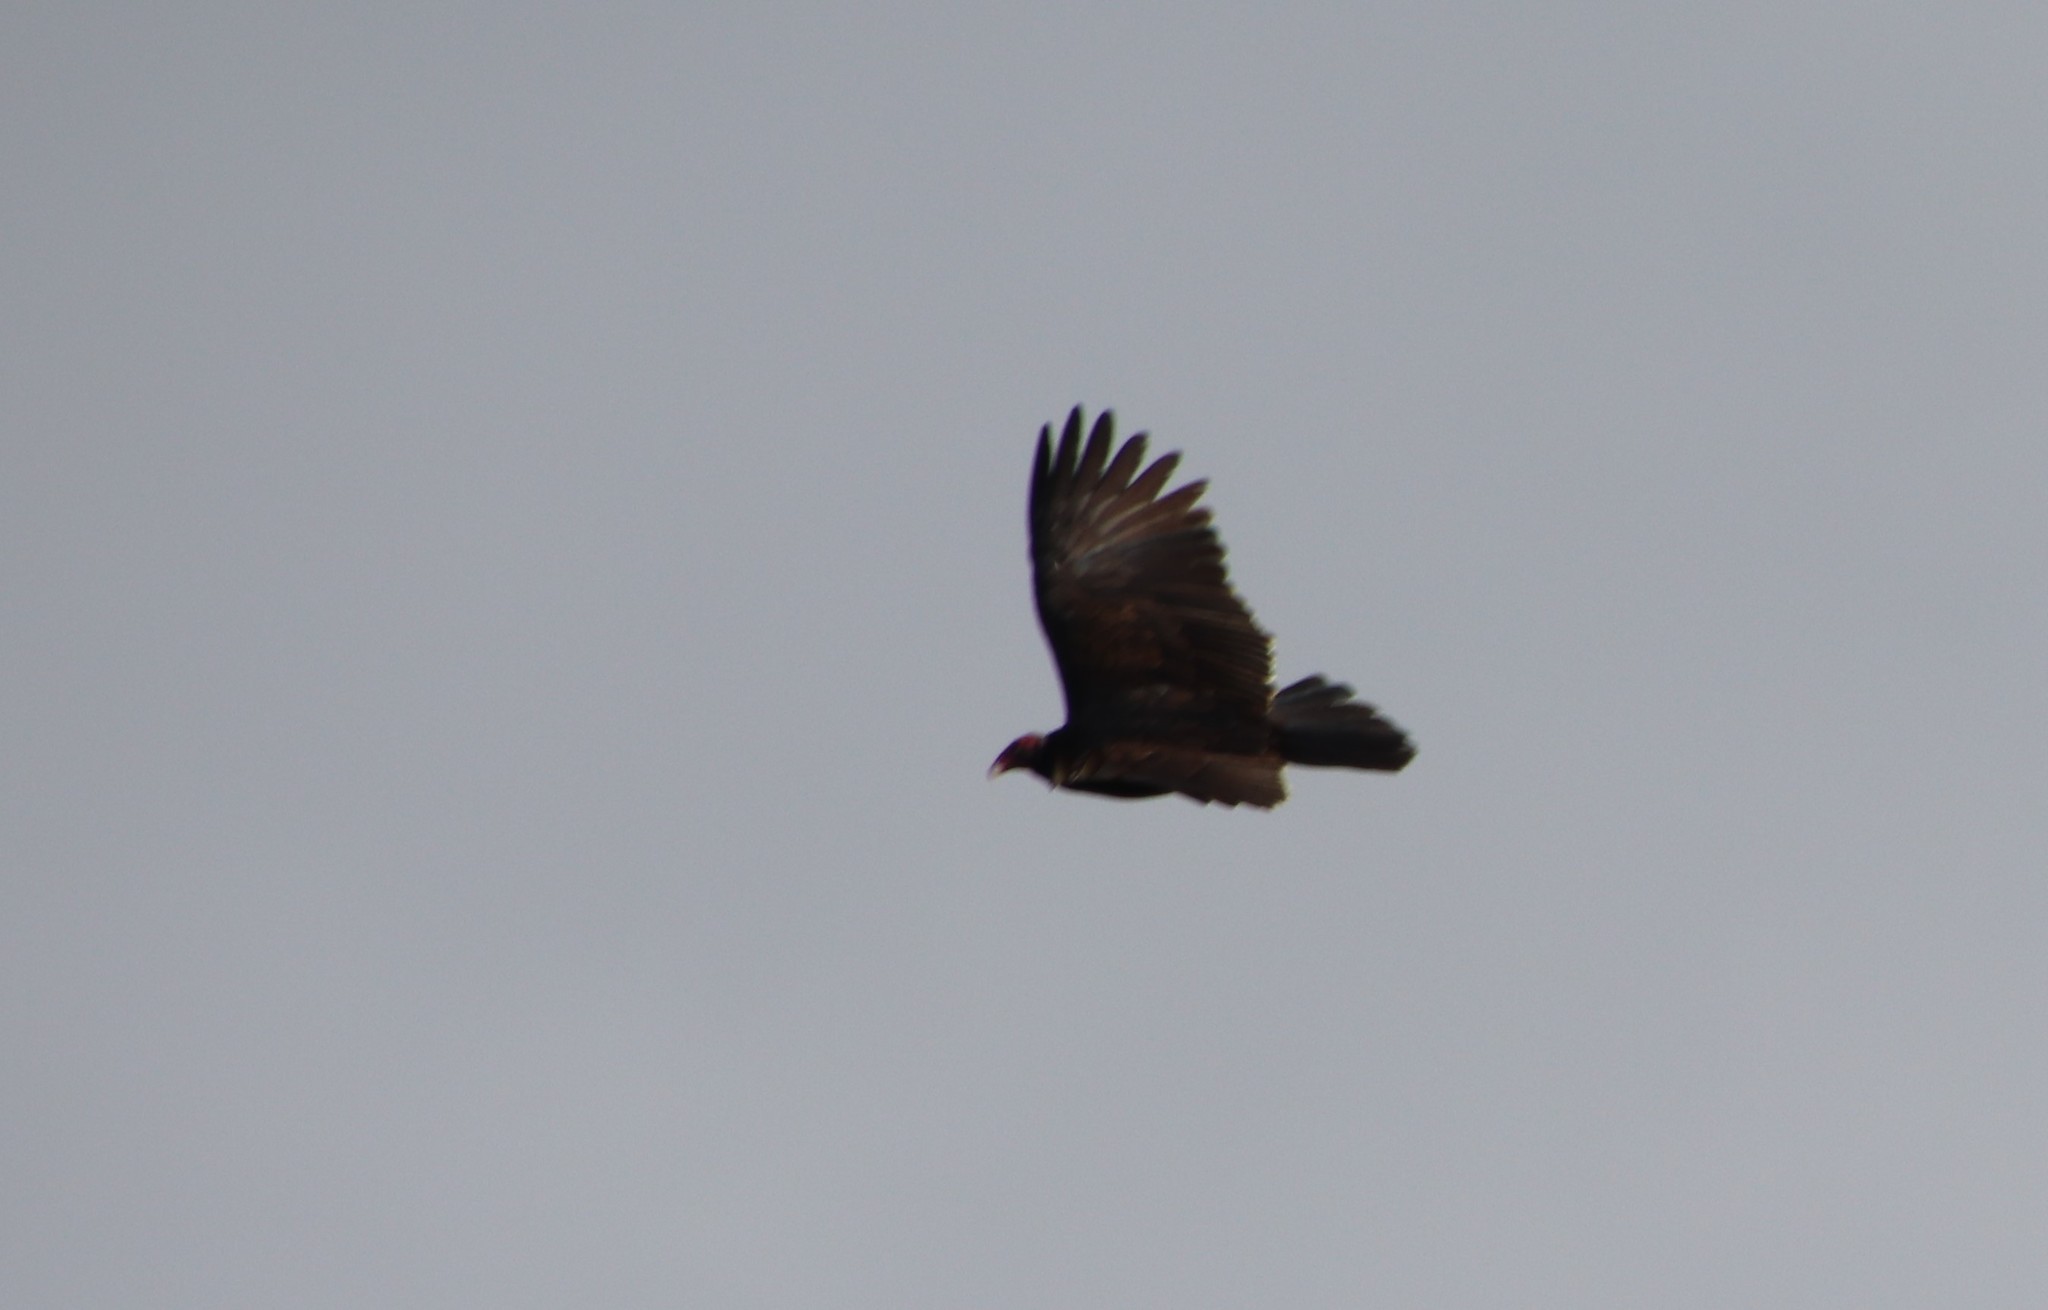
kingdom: Animalia
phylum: Chordata
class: Aves
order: Accipitriformes
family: Cathartidae
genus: Cathartes
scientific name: Cathartes aura
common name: Turkey vulture
